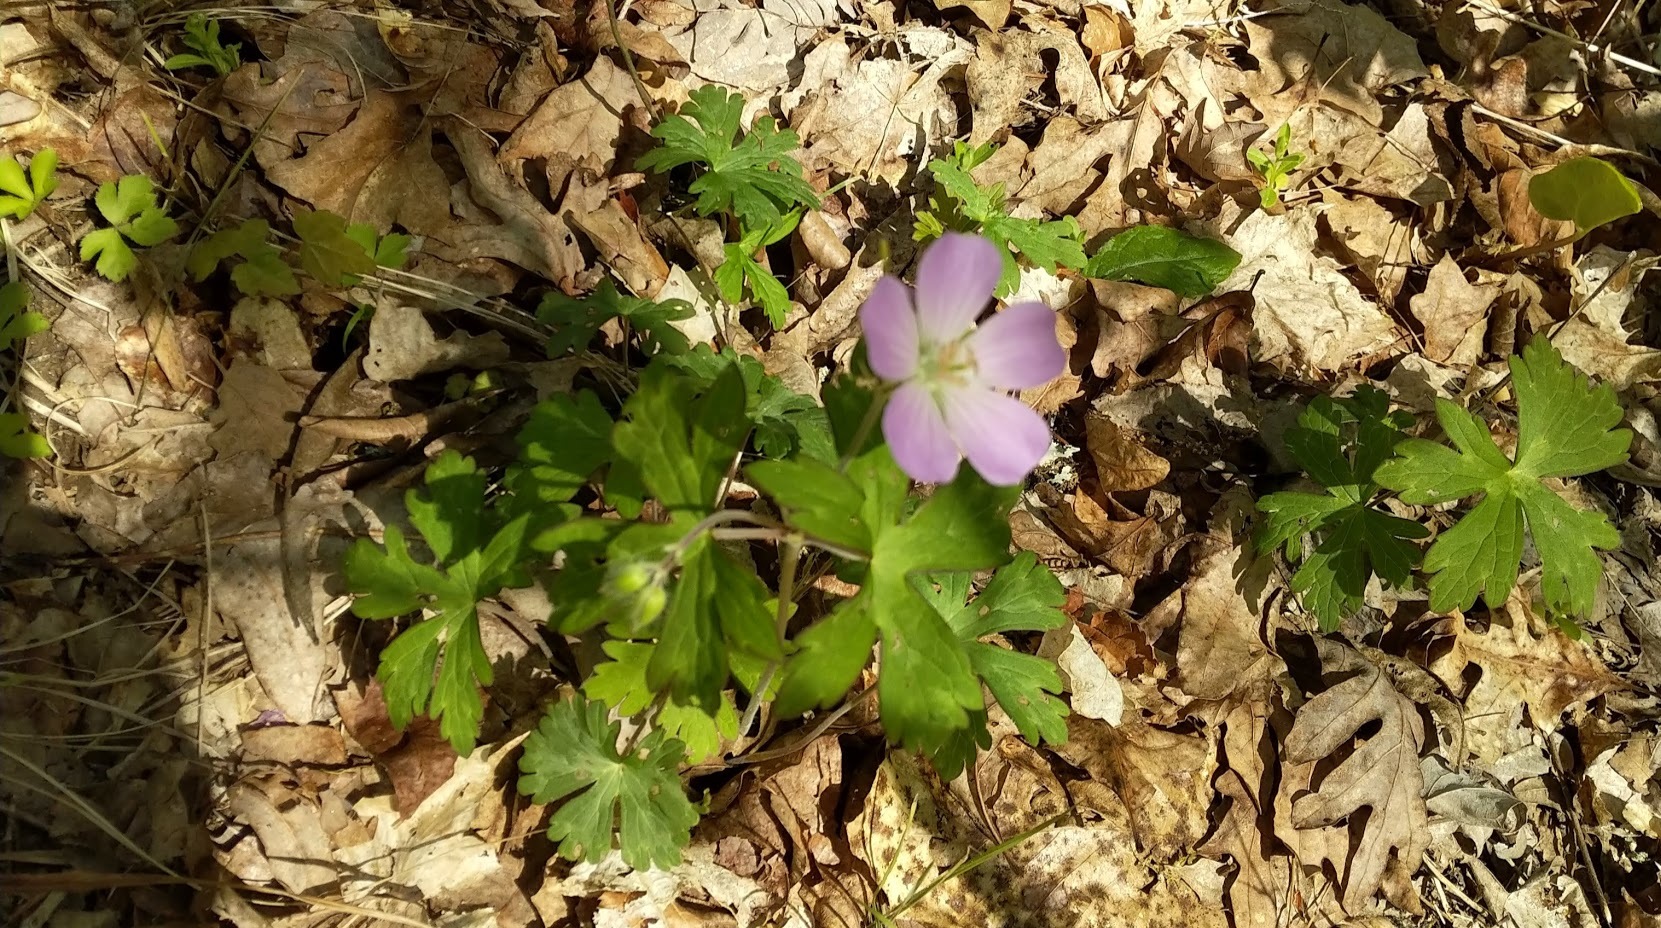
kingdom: Plantae
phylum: Tracheophyta
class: Magnoliopsida
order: Geraniales
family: Geraniaceae
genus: Geranium
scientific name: Geranium maculatum
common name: Spotted geranium
